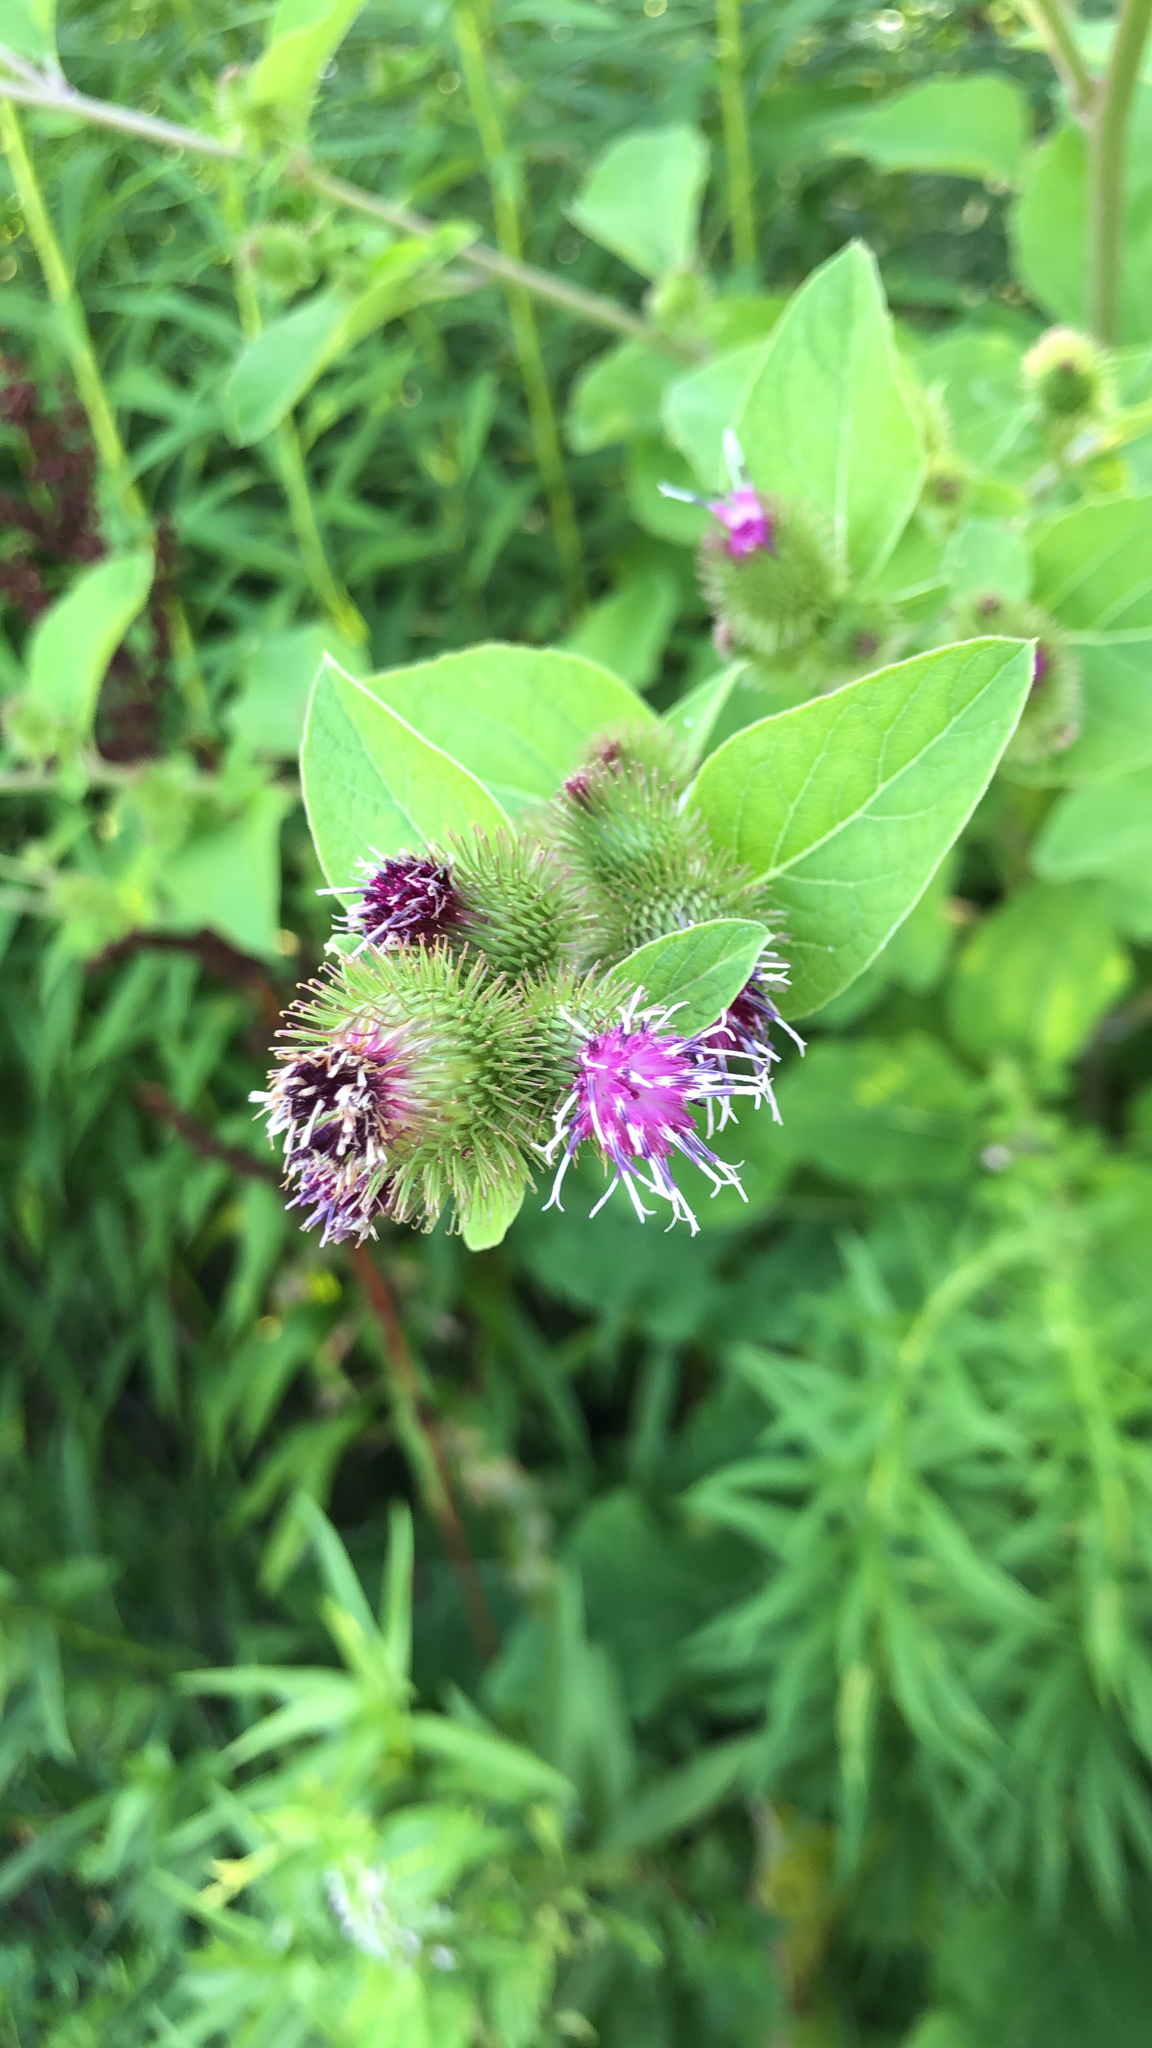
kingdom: Plantae
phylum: Tracheophyta
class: Magnoliopsida
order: Asterales
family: Asteraceae
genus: Arctium
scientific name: Arctium minus
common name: Lesser burdock
